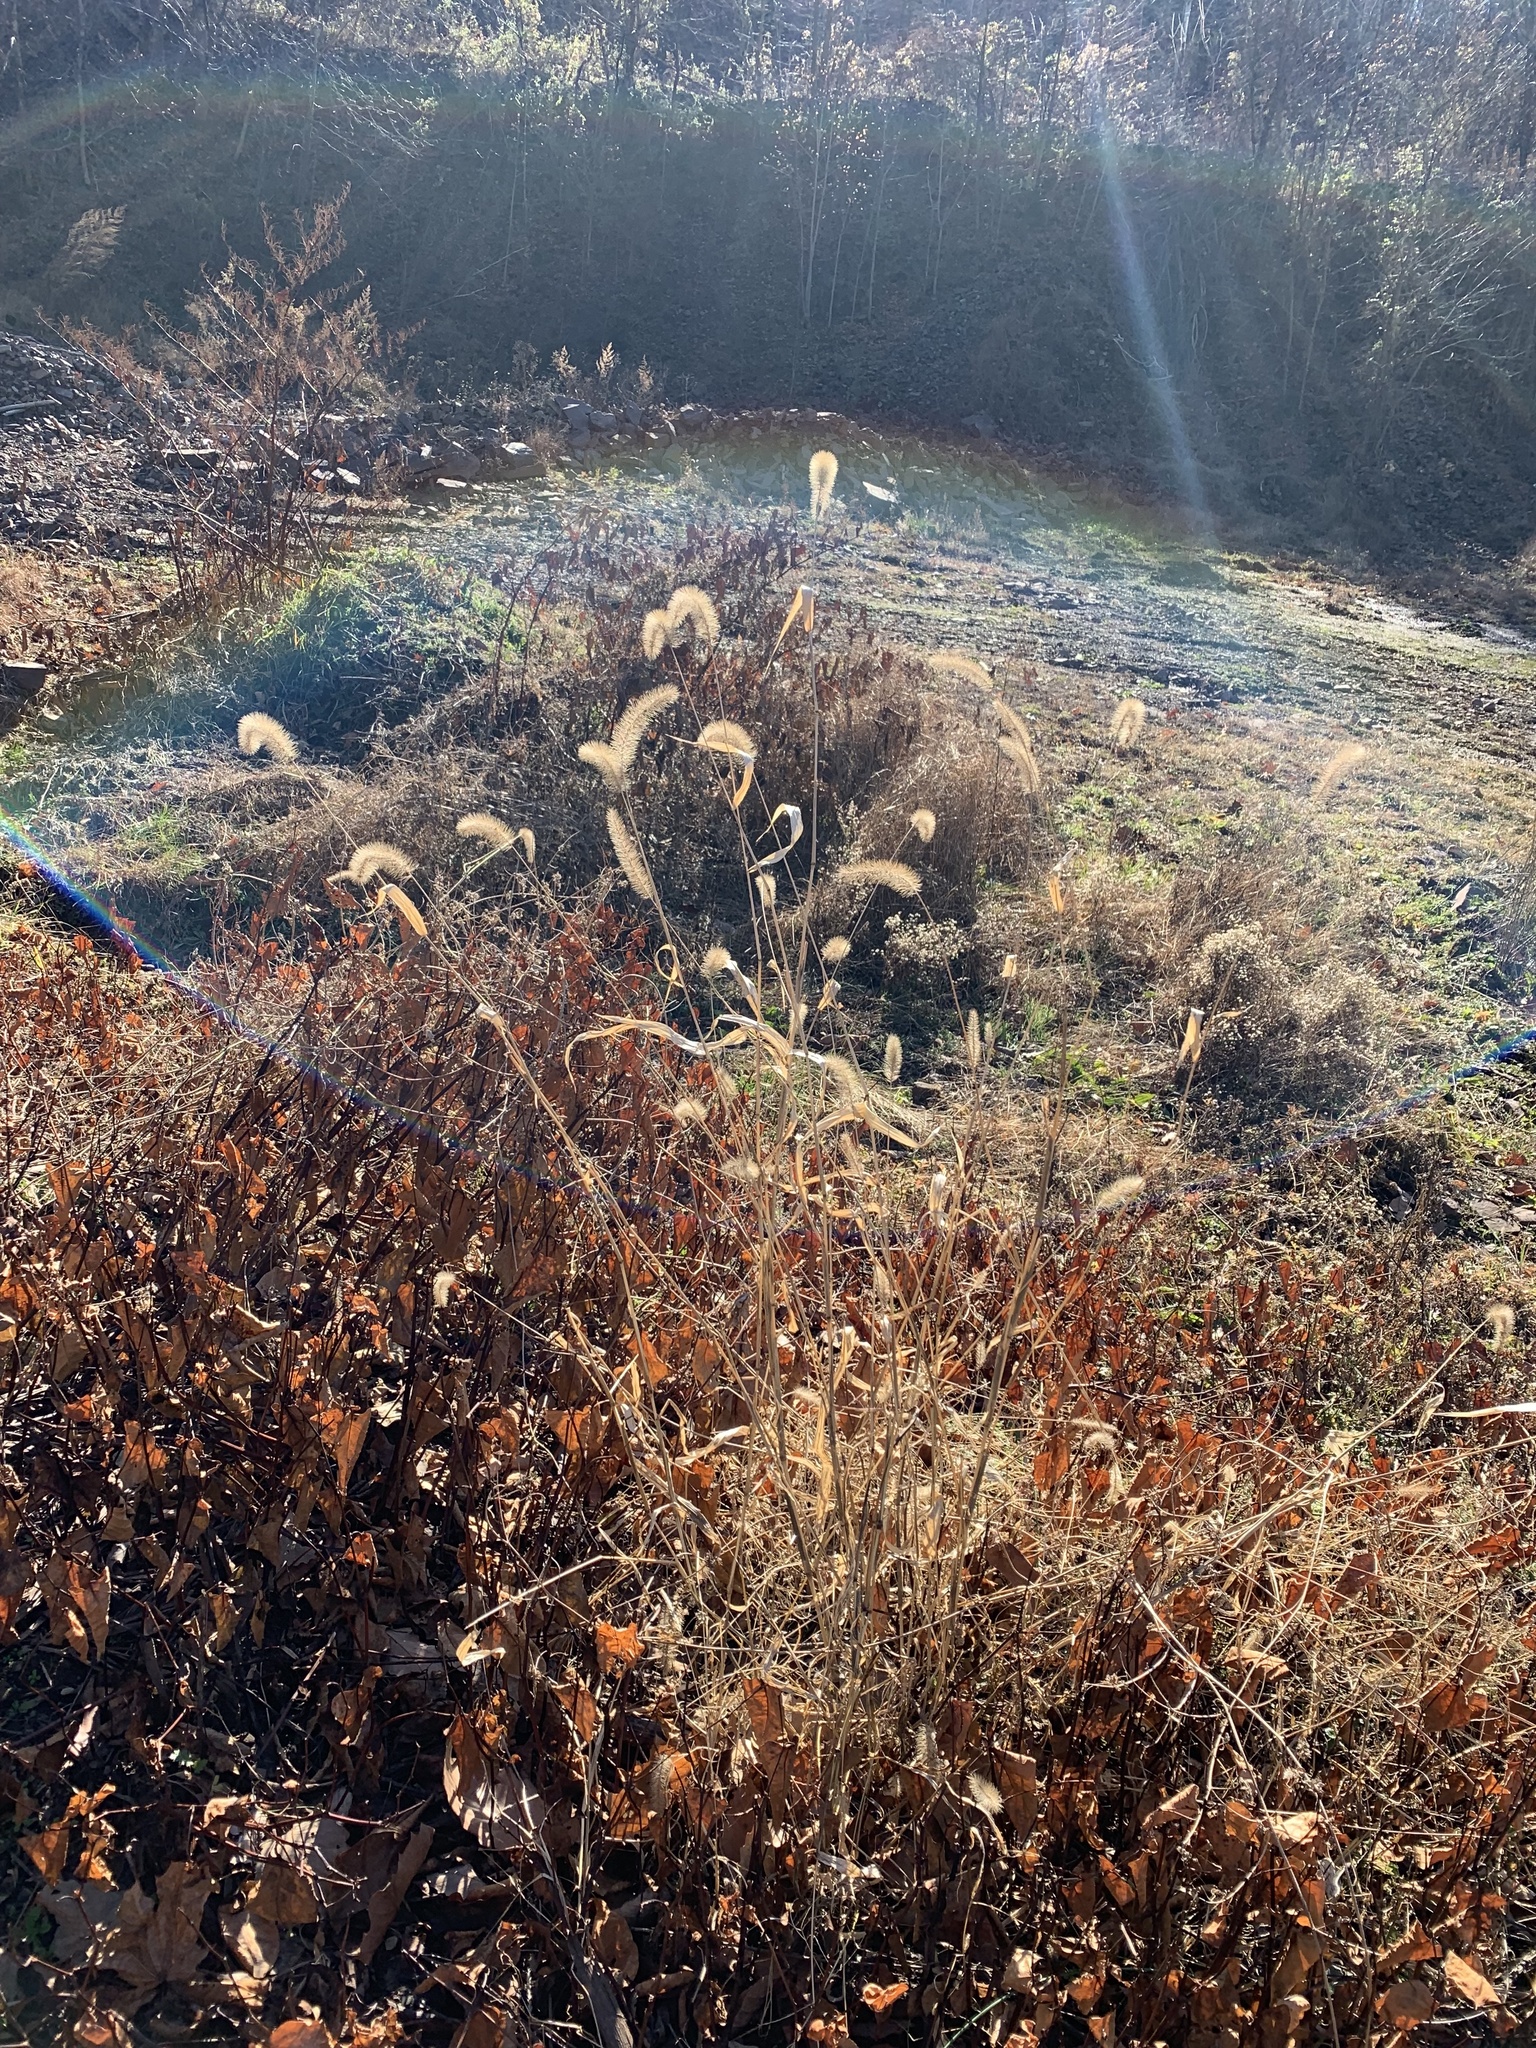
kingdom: Plantae
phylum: Tracheophyta
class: Liliopsida
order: Poales
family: Poaceae
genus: Setaria
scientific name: Setaria faberi
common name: Nodding bristle-grass
